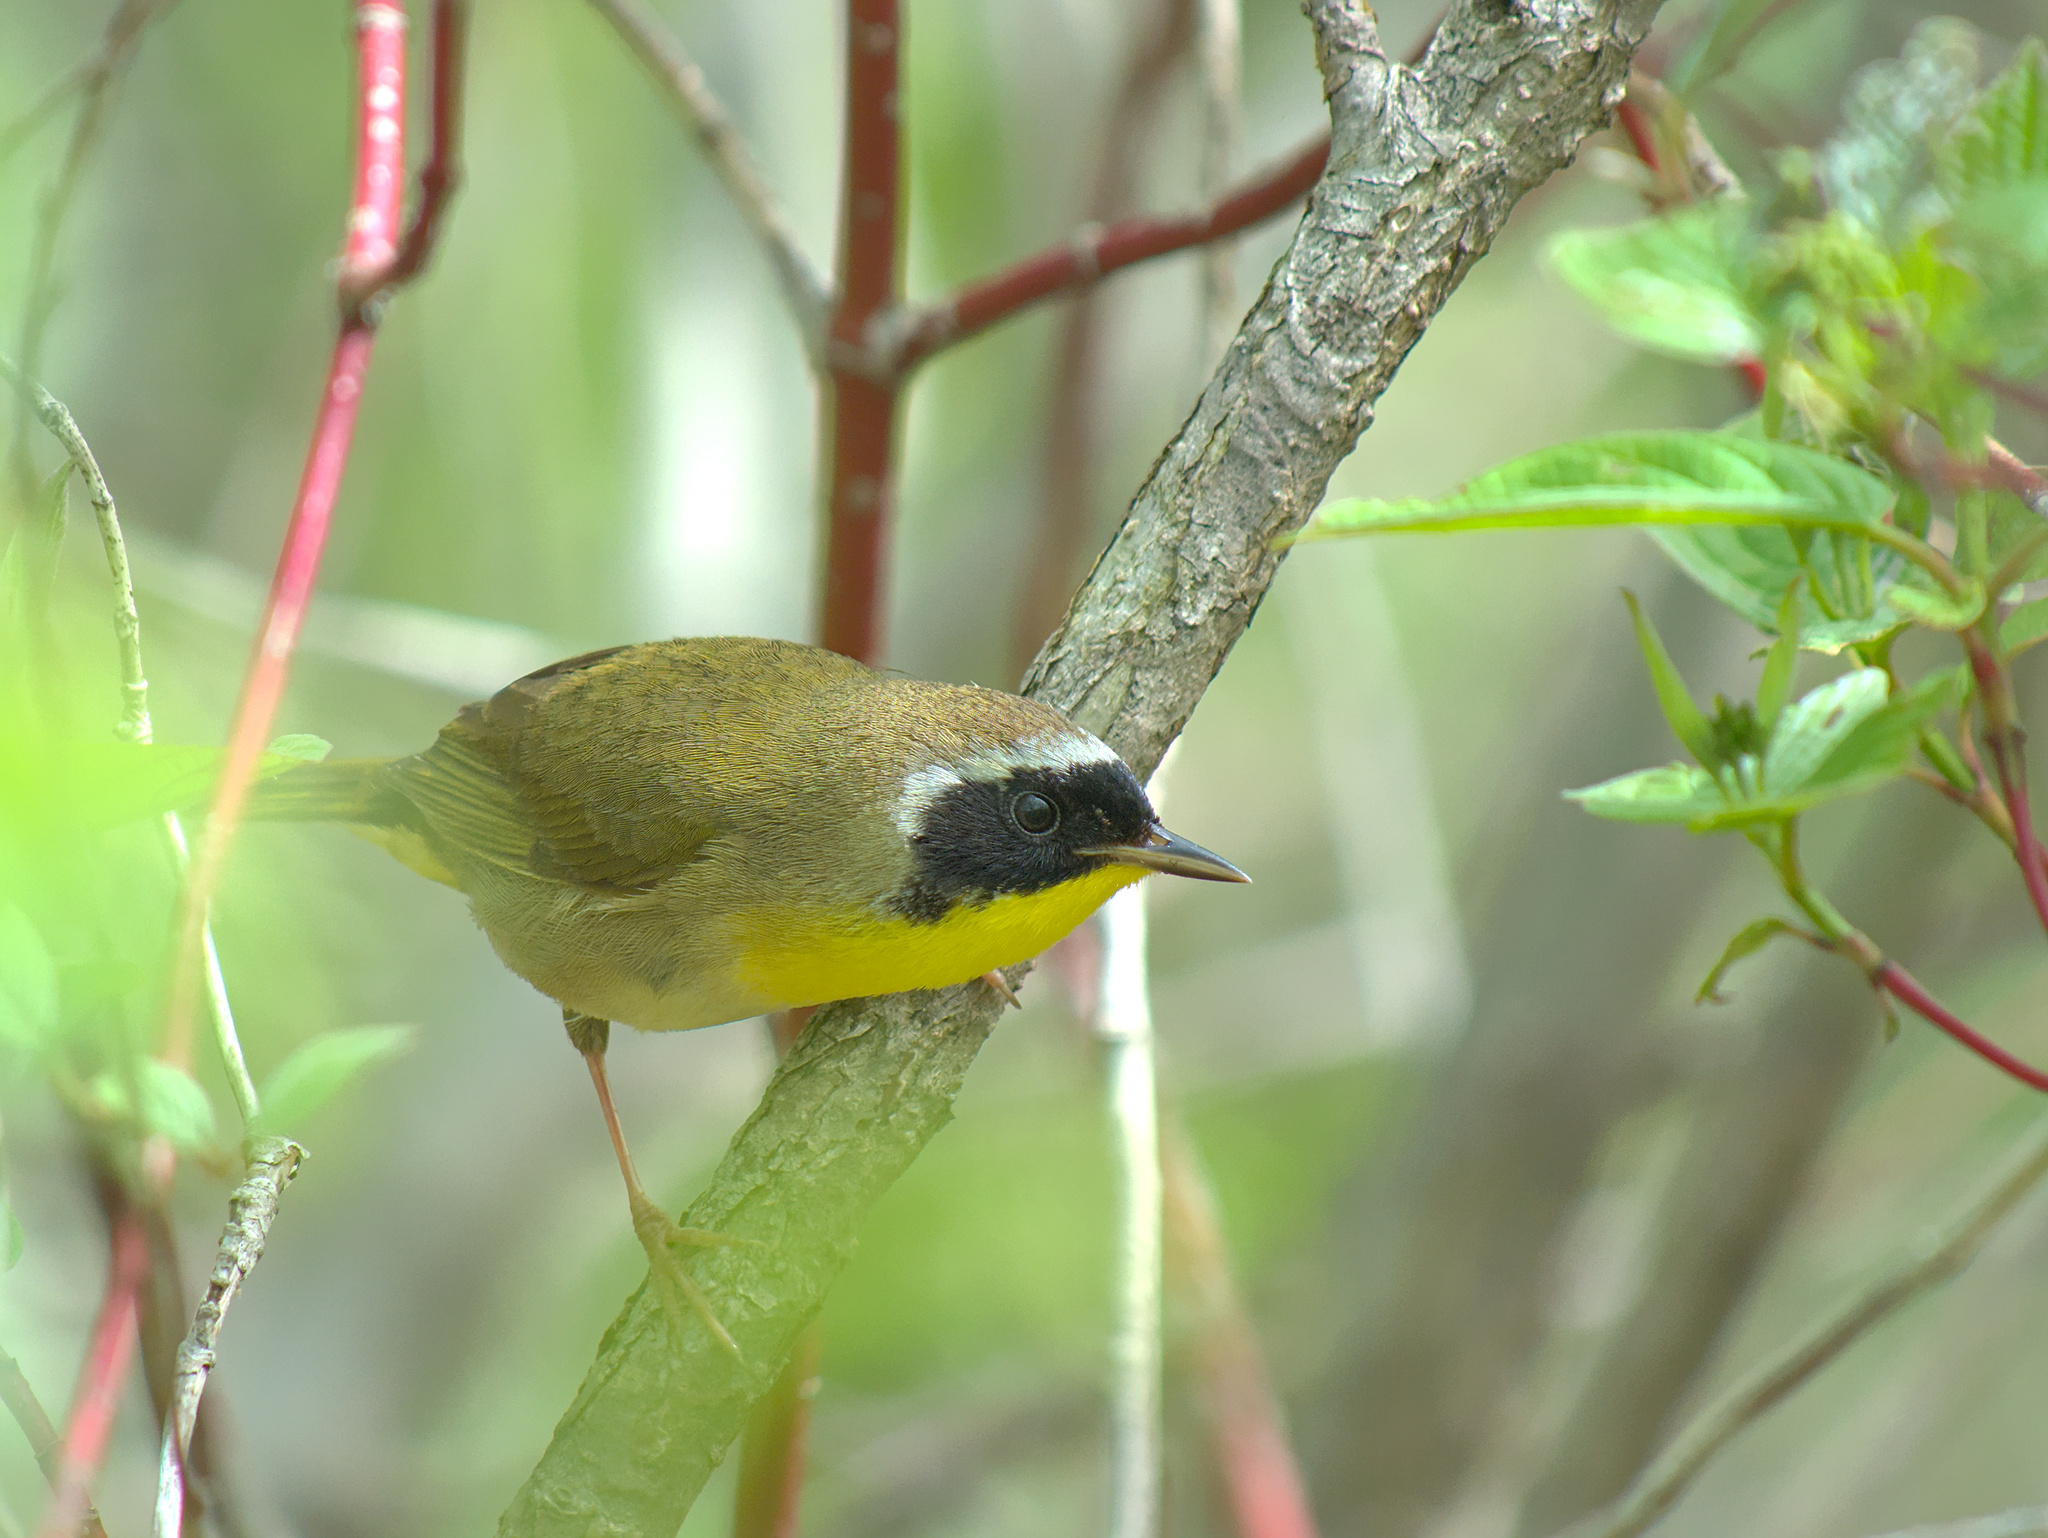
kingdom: Animalia
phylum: Chordata
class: Aves
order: Passeriformes
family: Parulidae
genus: Geothlypis
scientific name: Geothlypis trichas
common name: Common yellowthroat
